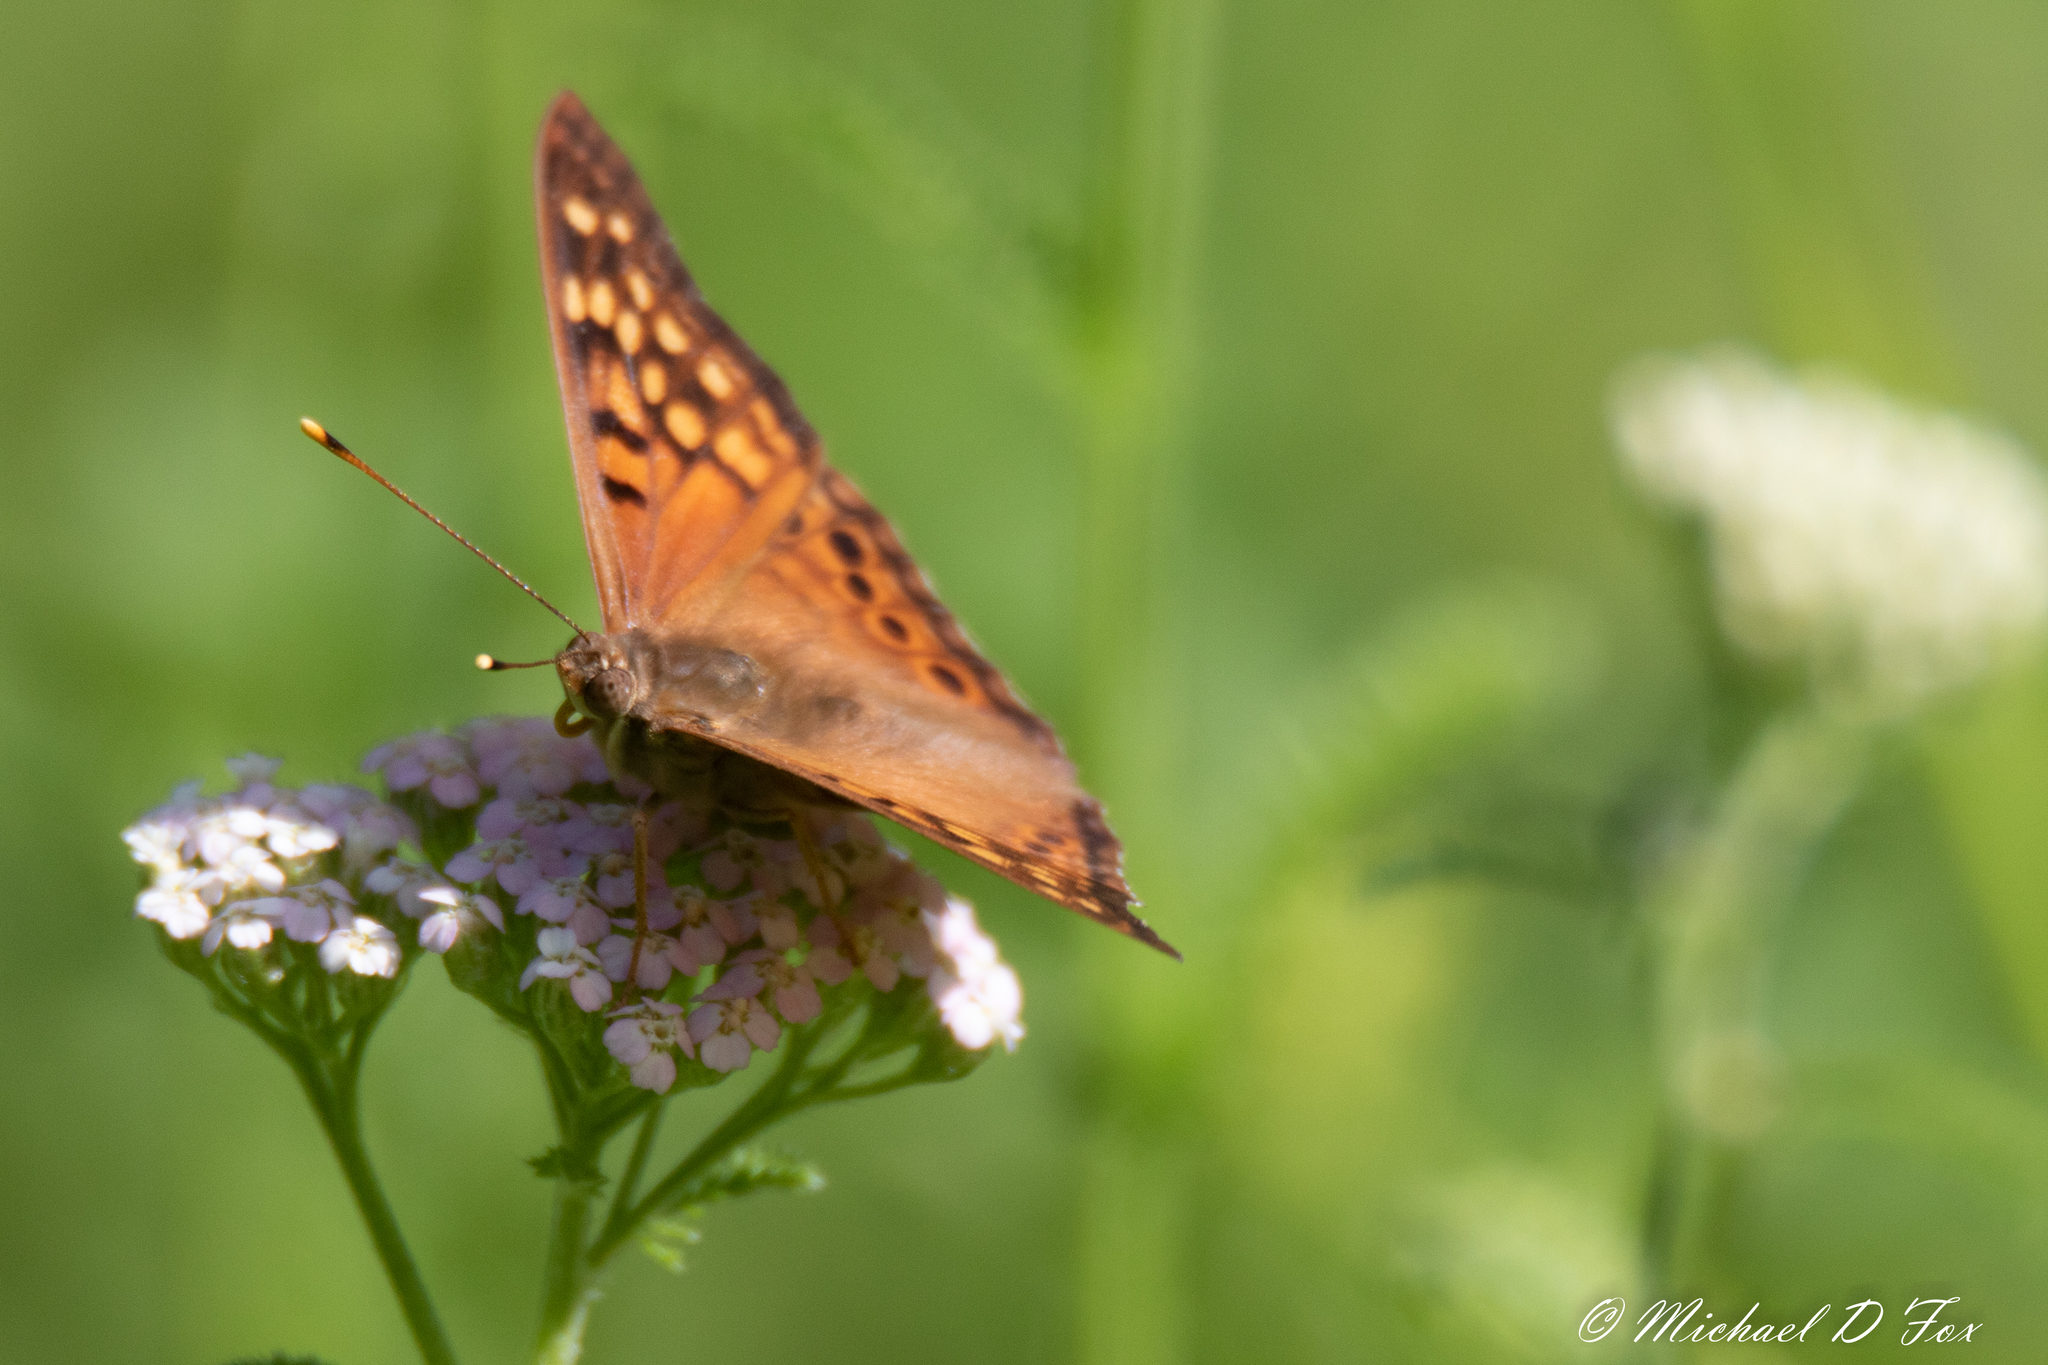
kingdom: Animalia
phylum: Arthropoda
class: Insecta
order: Lepidoptera
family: Nymphalidae
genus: Asterocampa
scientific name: Asterocampa clyton
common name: Tawny emperor
